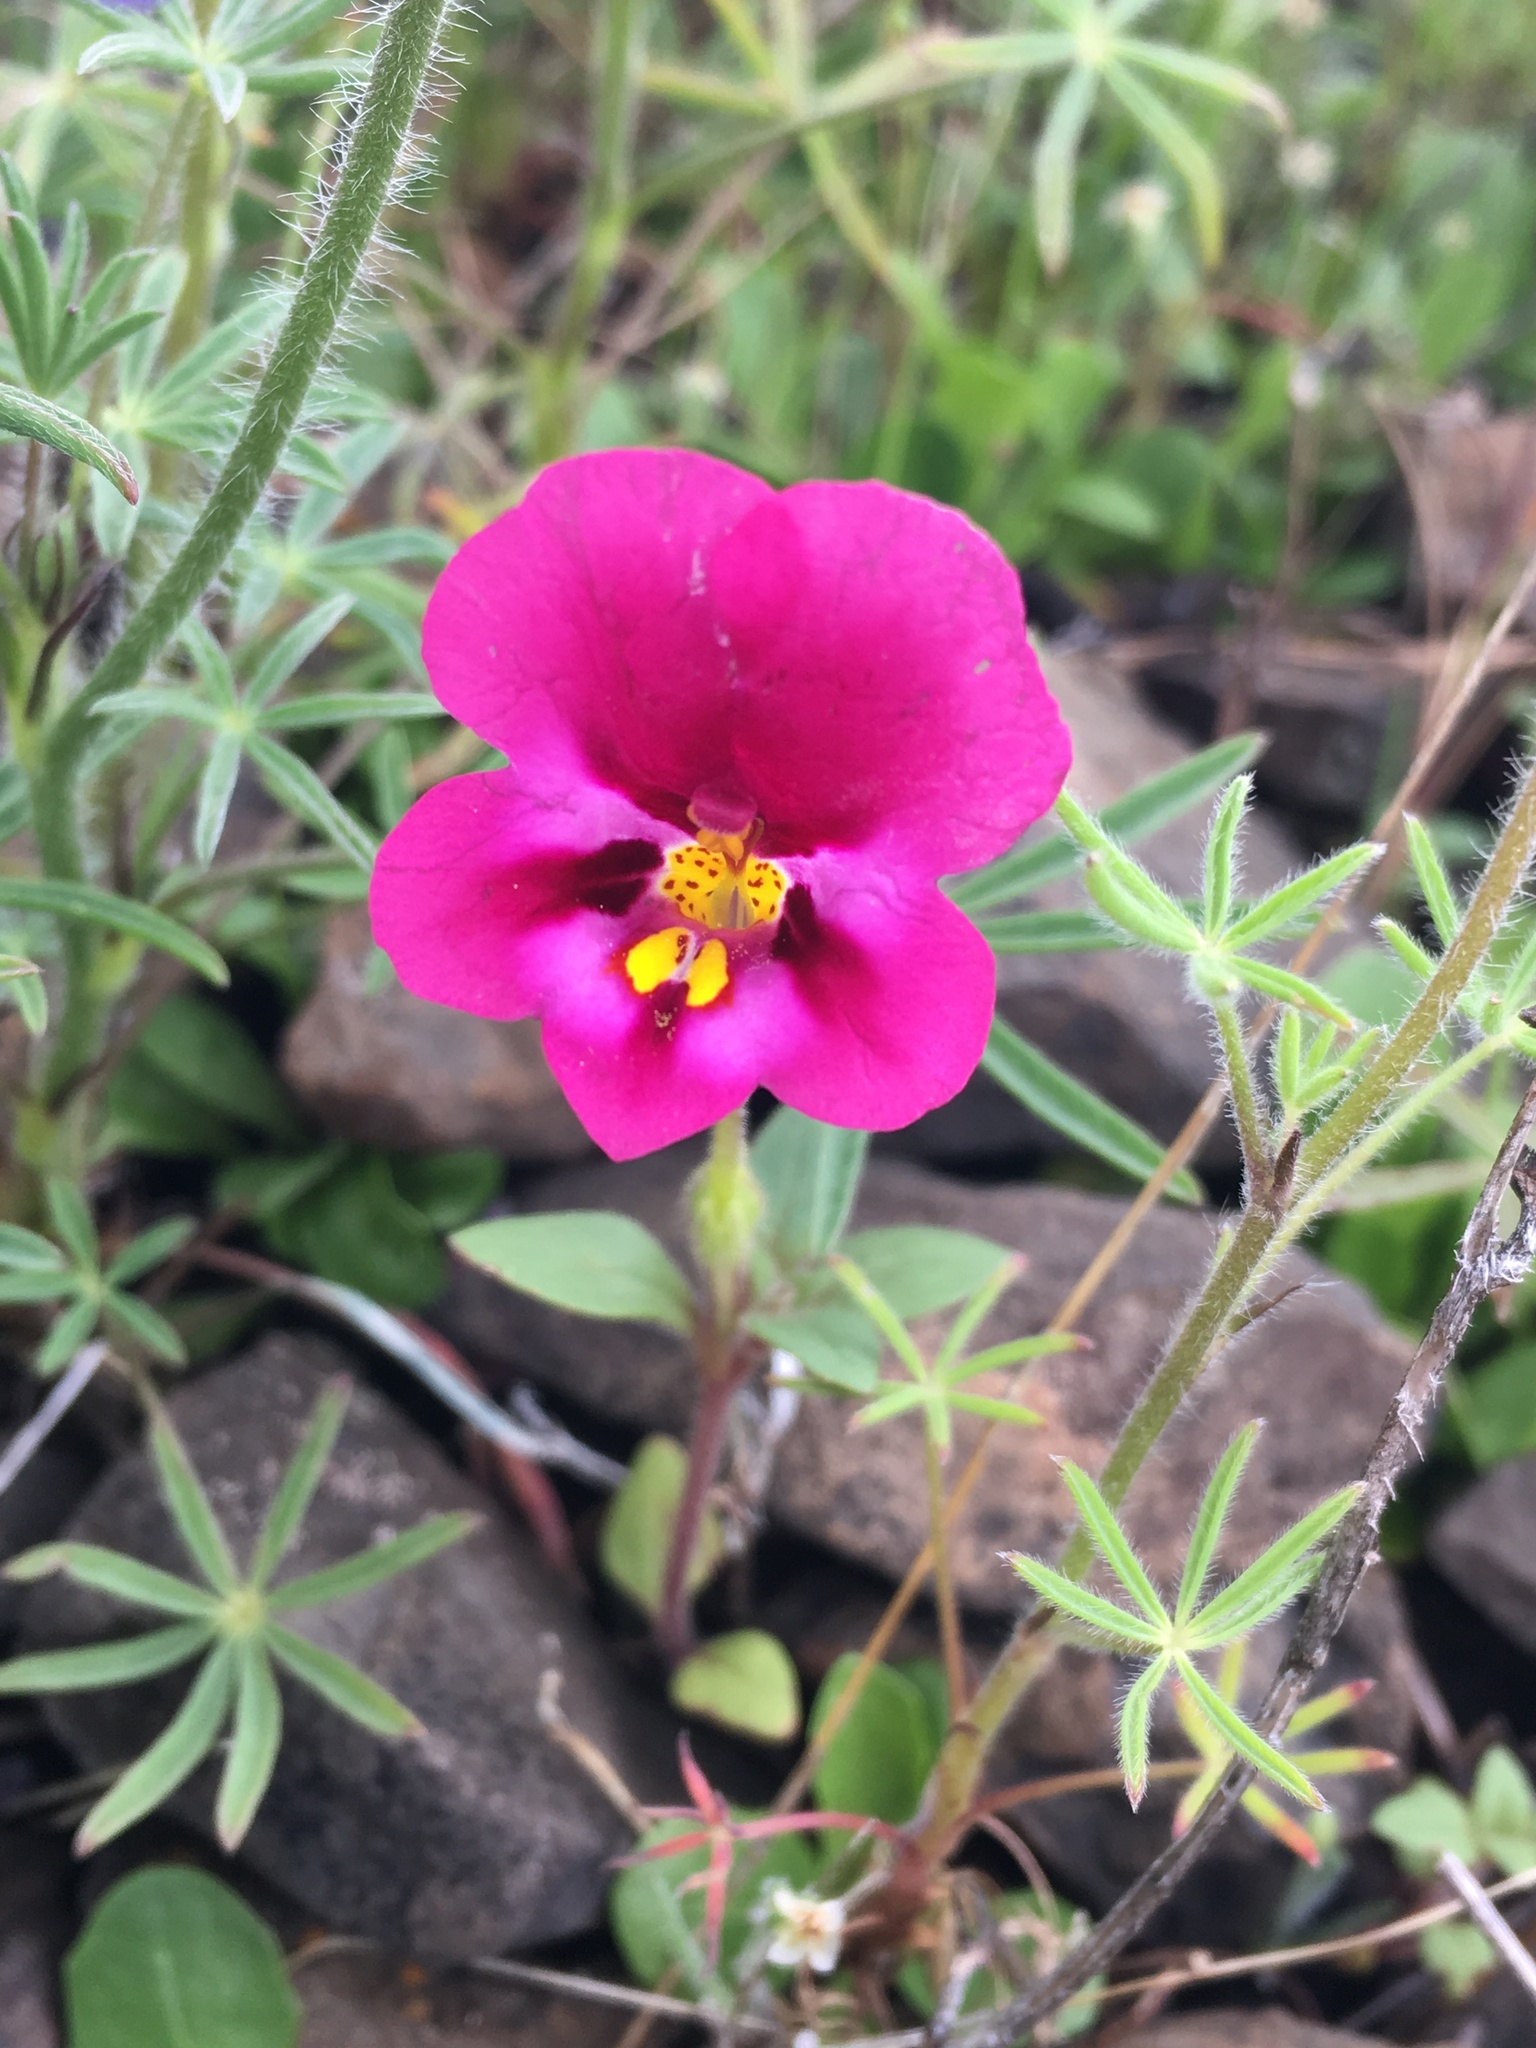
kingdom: Plantae
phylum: Tracheophyta
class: Magnoliopsida
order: Lamiales
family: Phrymaceae
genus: Diplacus
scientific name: Diplacus kelloggii
